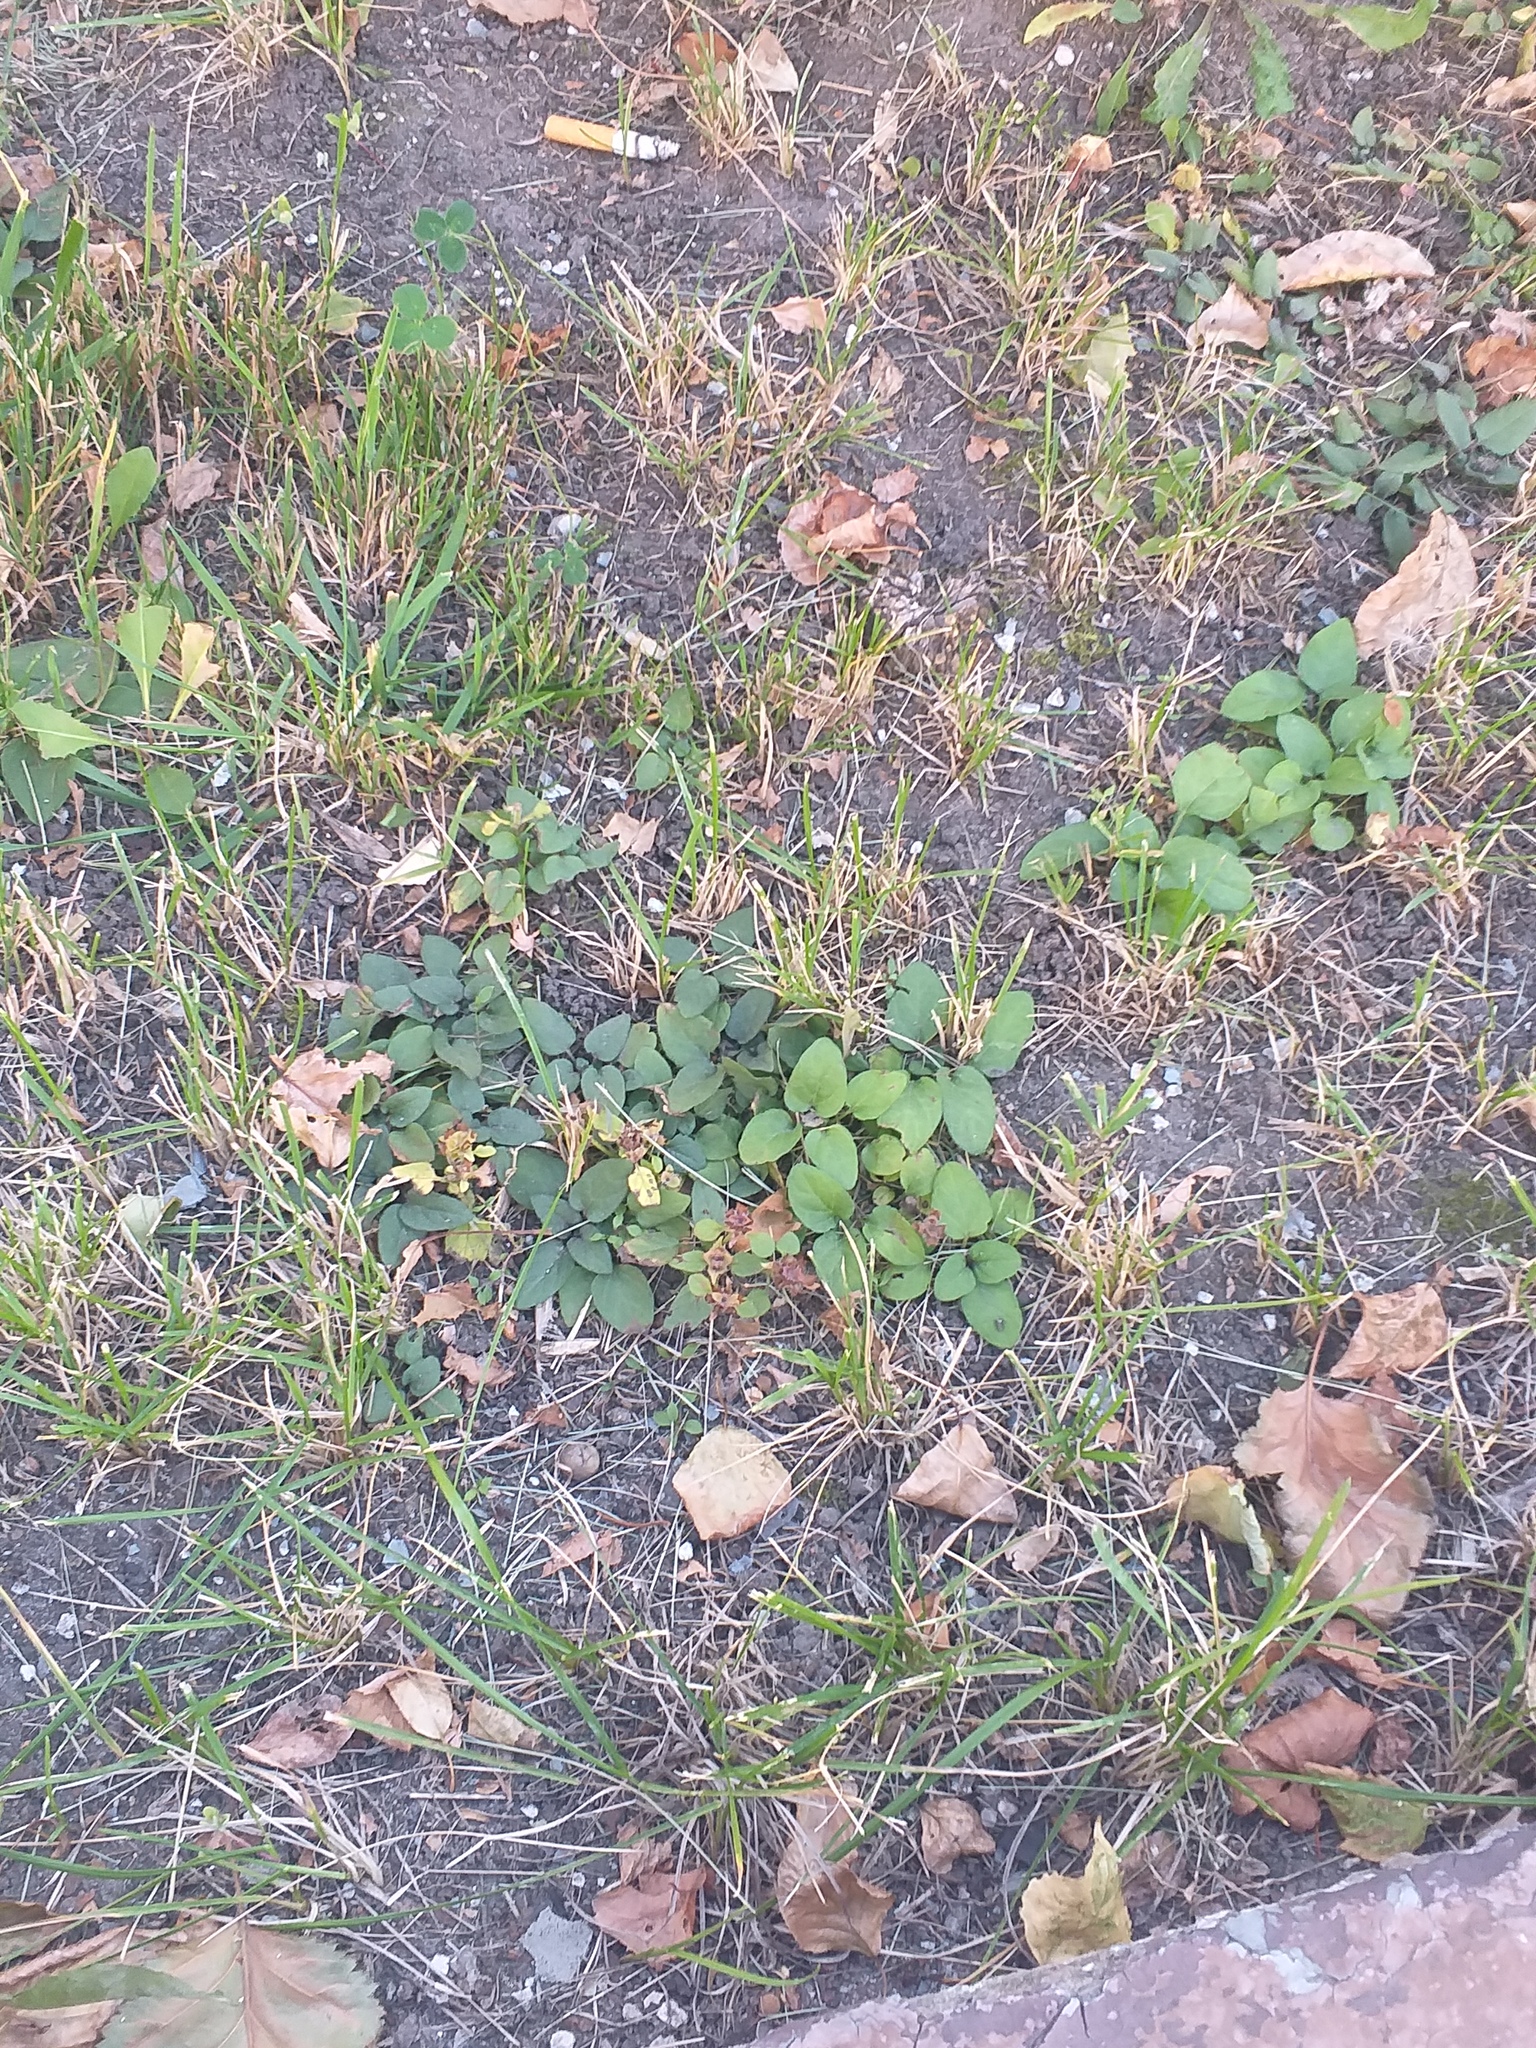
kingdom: Plantae
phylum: Tracheophyta
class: Magnoliopsida
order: Lamiales
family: Lamiaceae
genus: Prunella
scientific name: Prunella vulgaris
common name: Heal-all
